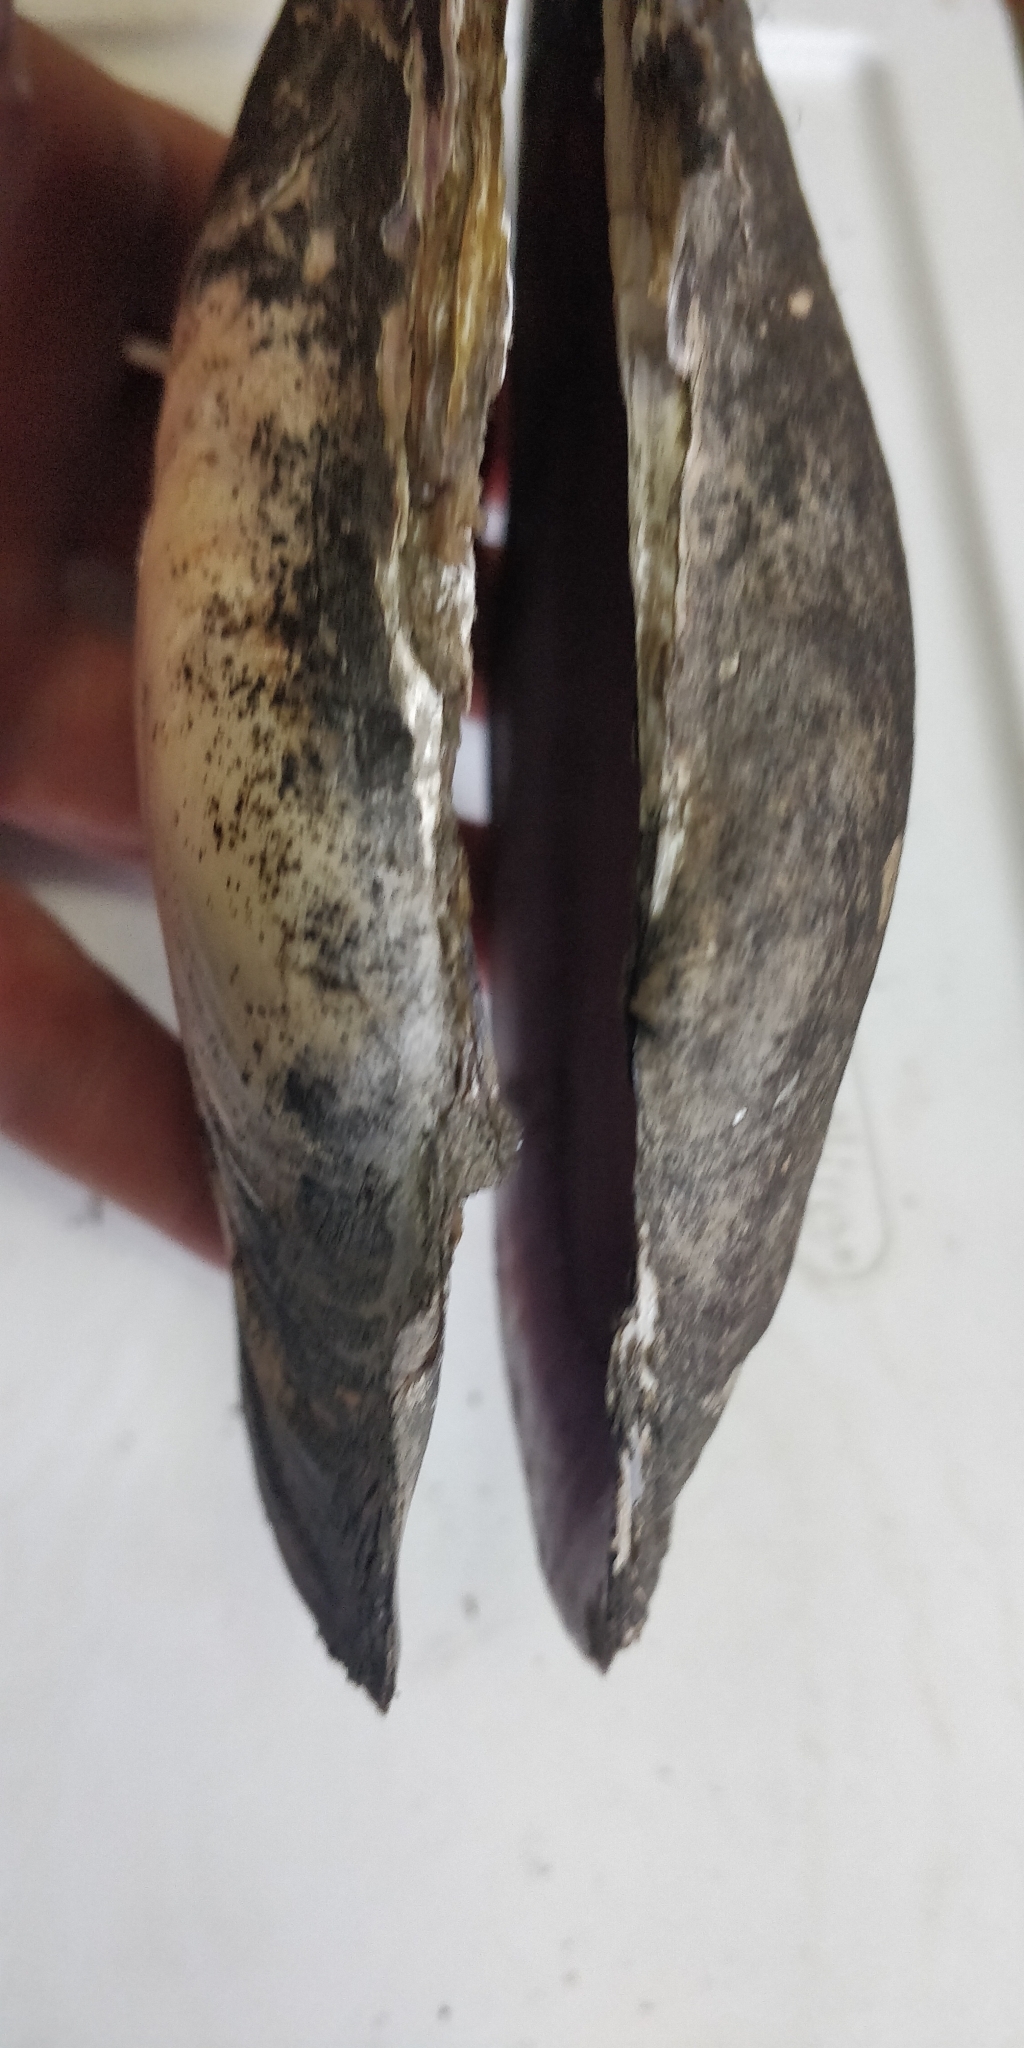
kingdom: Animalia
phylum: Mollusca
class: Bivalvia
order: Unionida
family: Unionidae
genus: Potamilus
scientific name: Potamilus ohiensis
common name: Pink papershell
